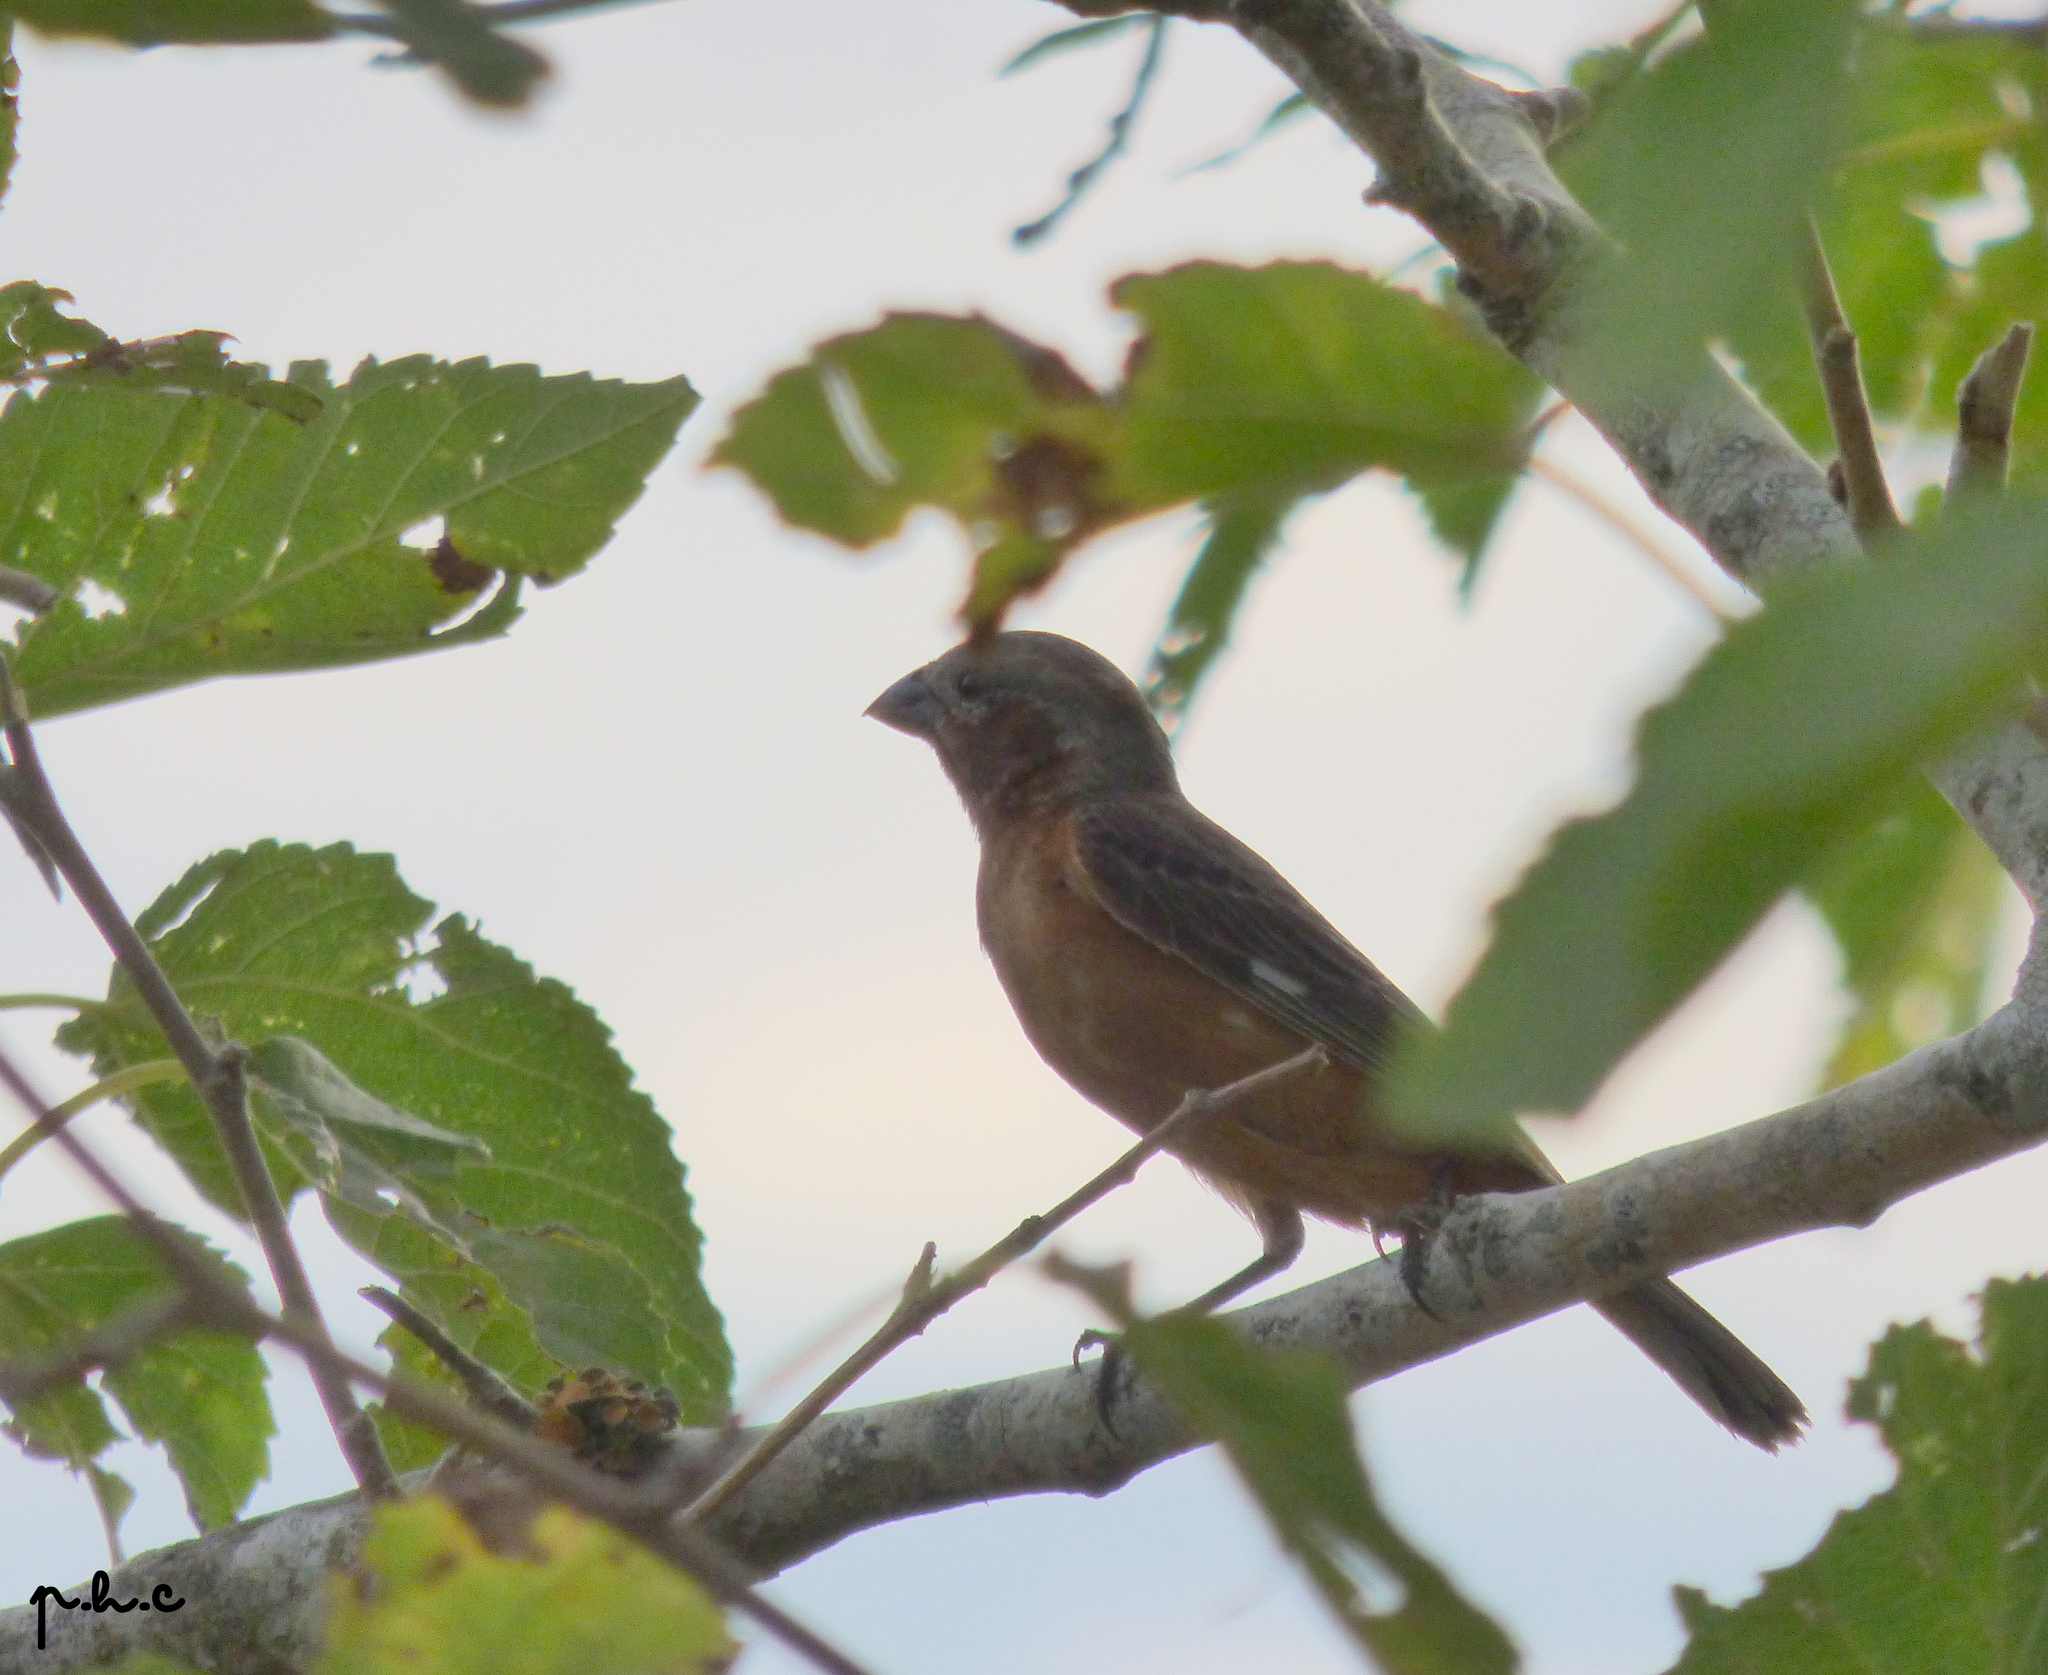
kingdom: Animalia
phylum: Chordata
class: Aves
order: Passeriformes
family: Thraupidae
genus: Sporophila
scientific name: Sporophila ruficollis
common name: Dark-throated seedeater
